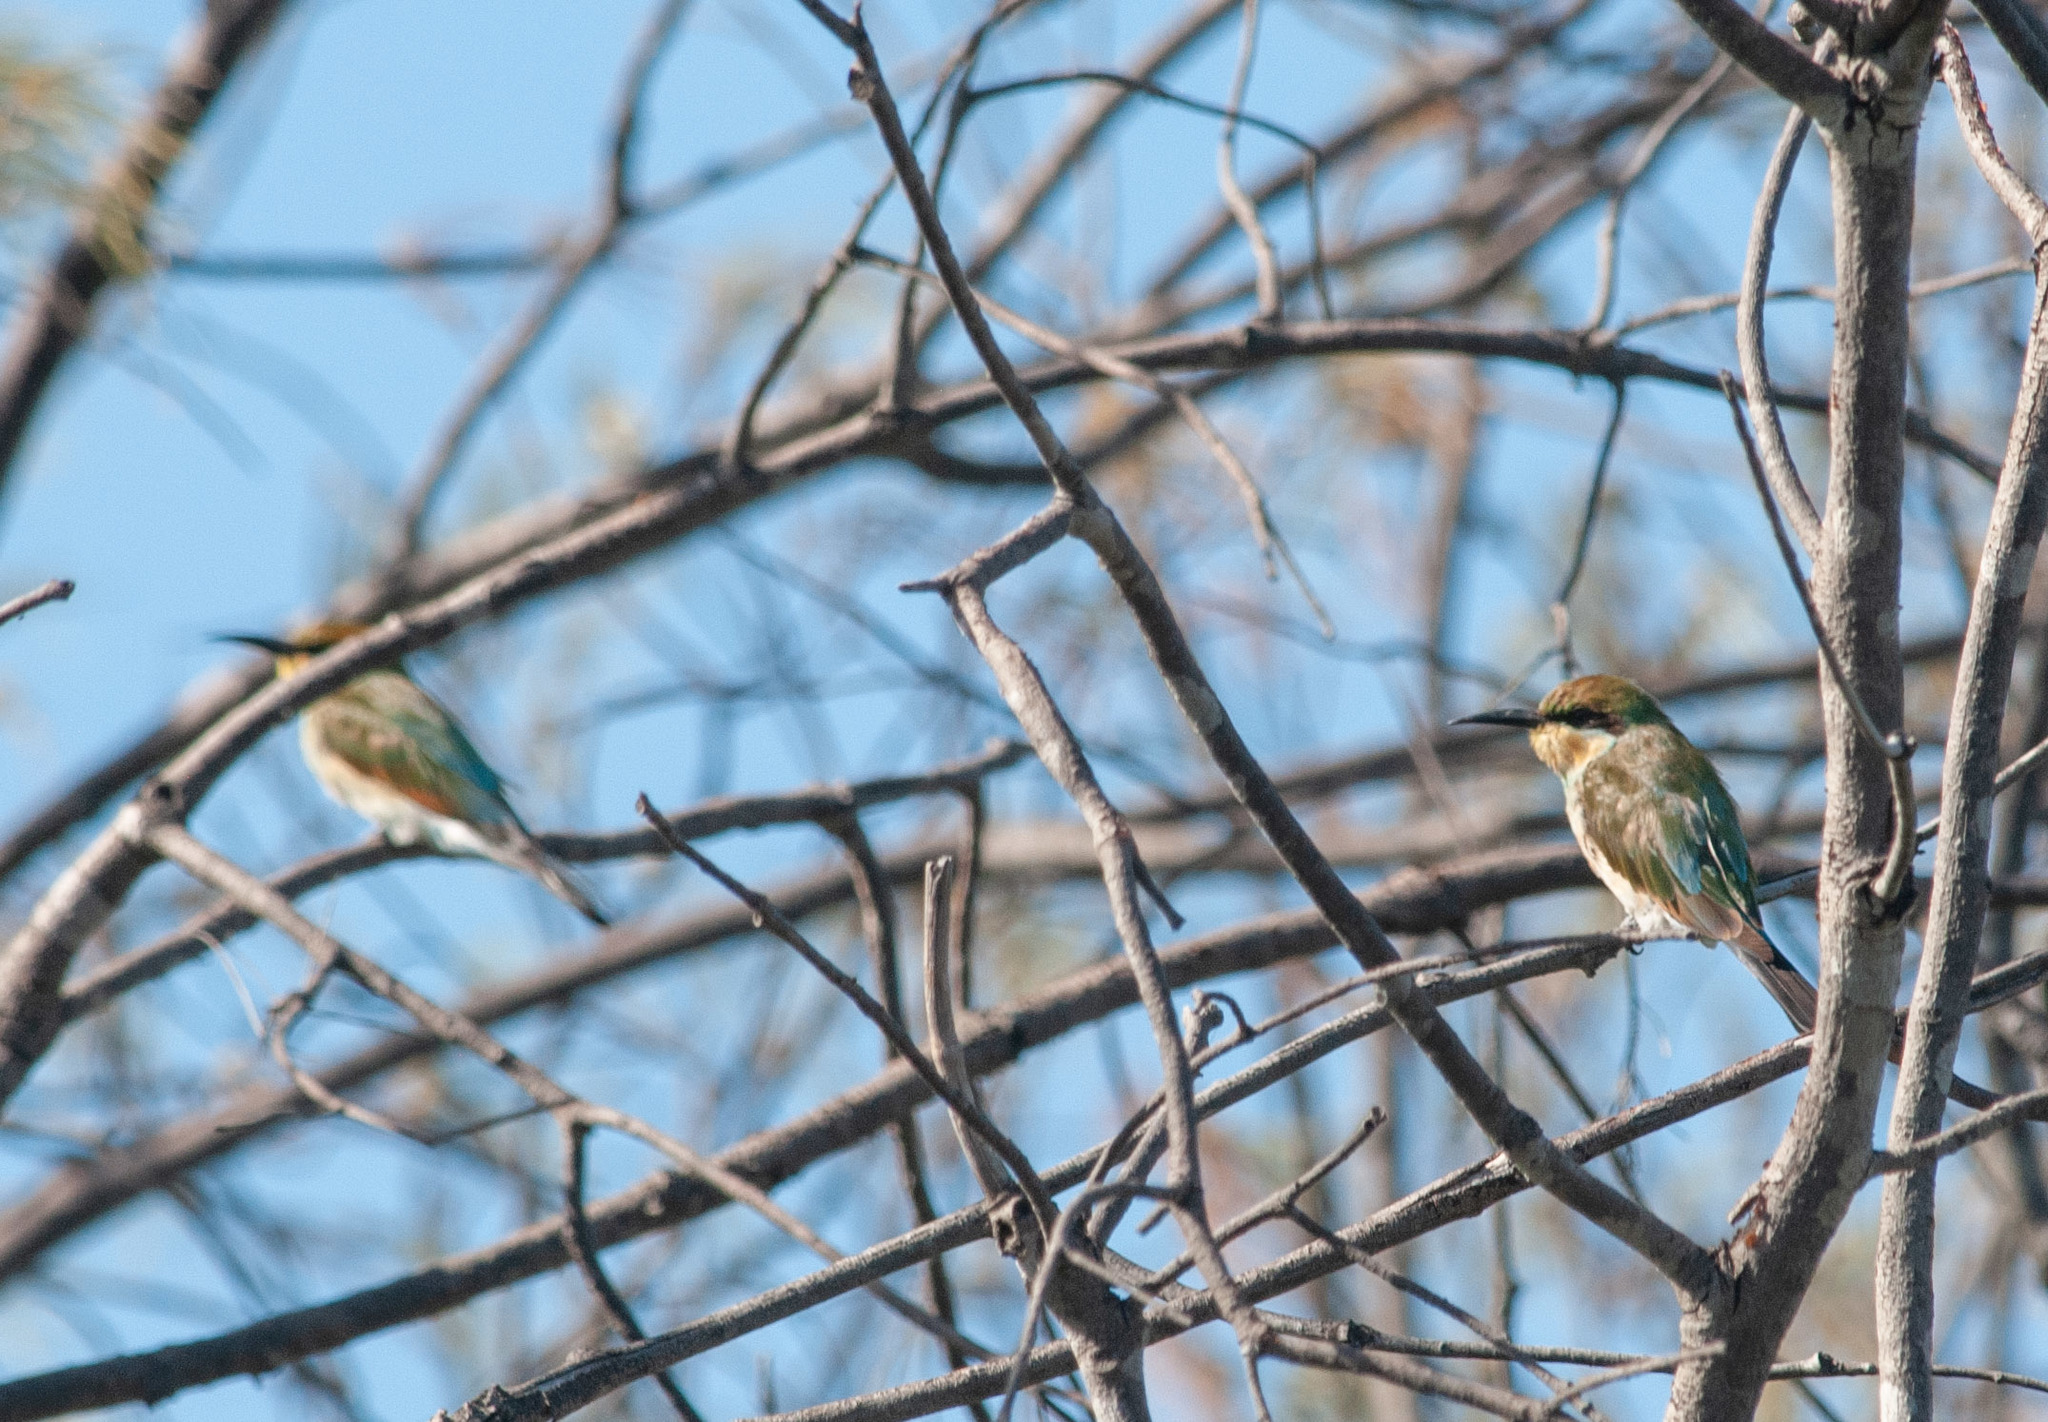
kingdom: Animalia
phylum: Chordata
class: Aves
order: Coraciiformes
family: Meropidae
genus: Merops
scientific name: Merops ornatus
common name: Rainbow bee-eater
